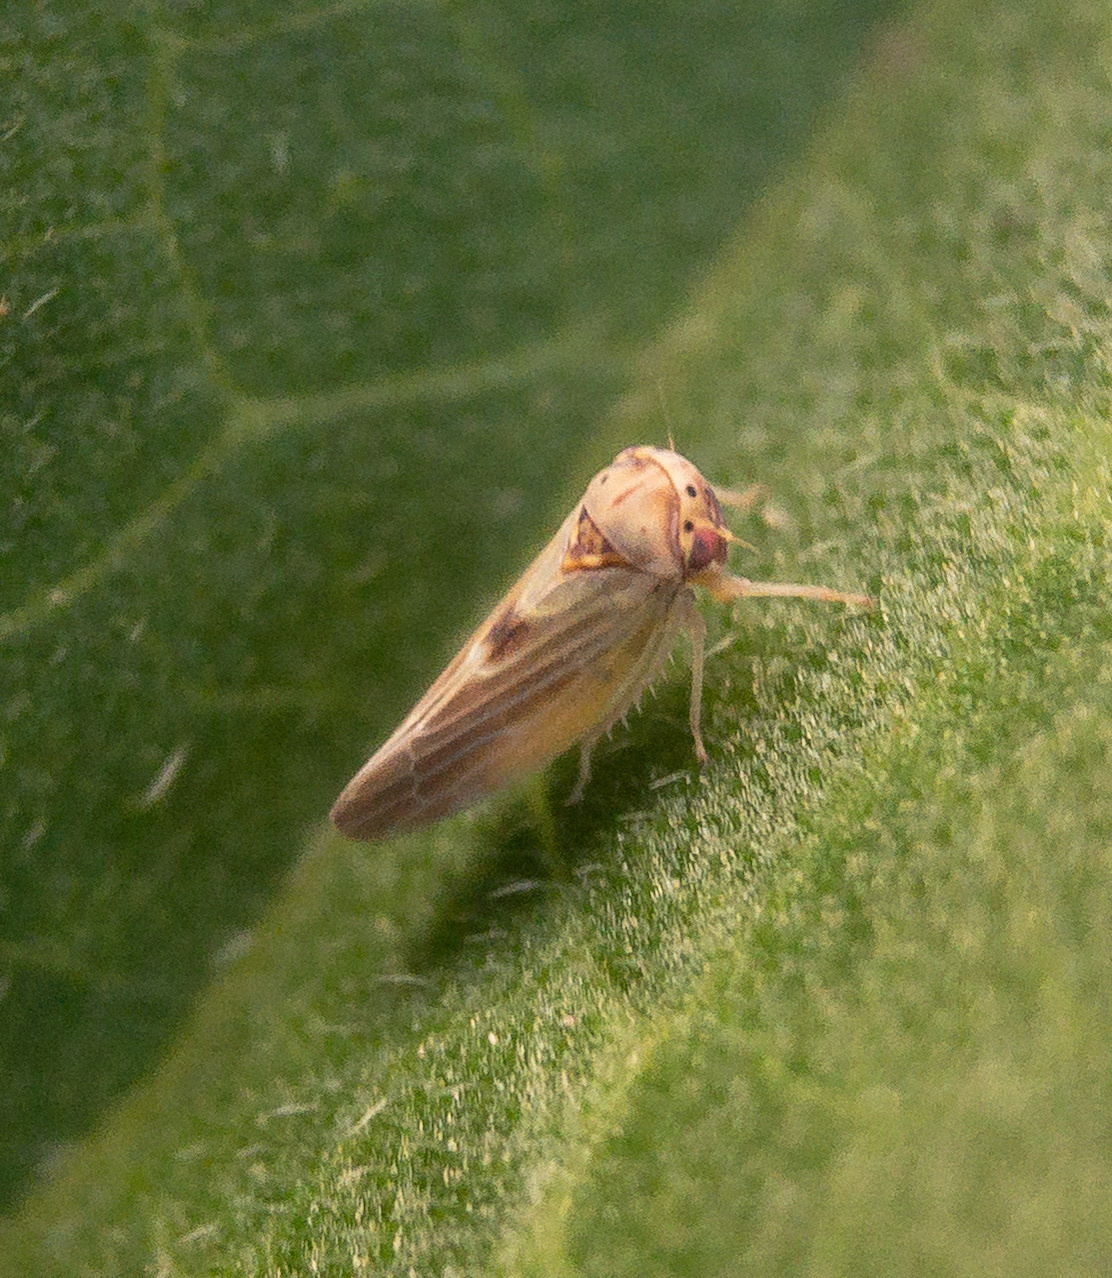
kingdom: Animalia
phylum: Arthropoda
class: Insecta
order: Hemiptera
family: Cicadellidae
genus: Agalliopsis
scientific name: Agalliopsis ancistra
